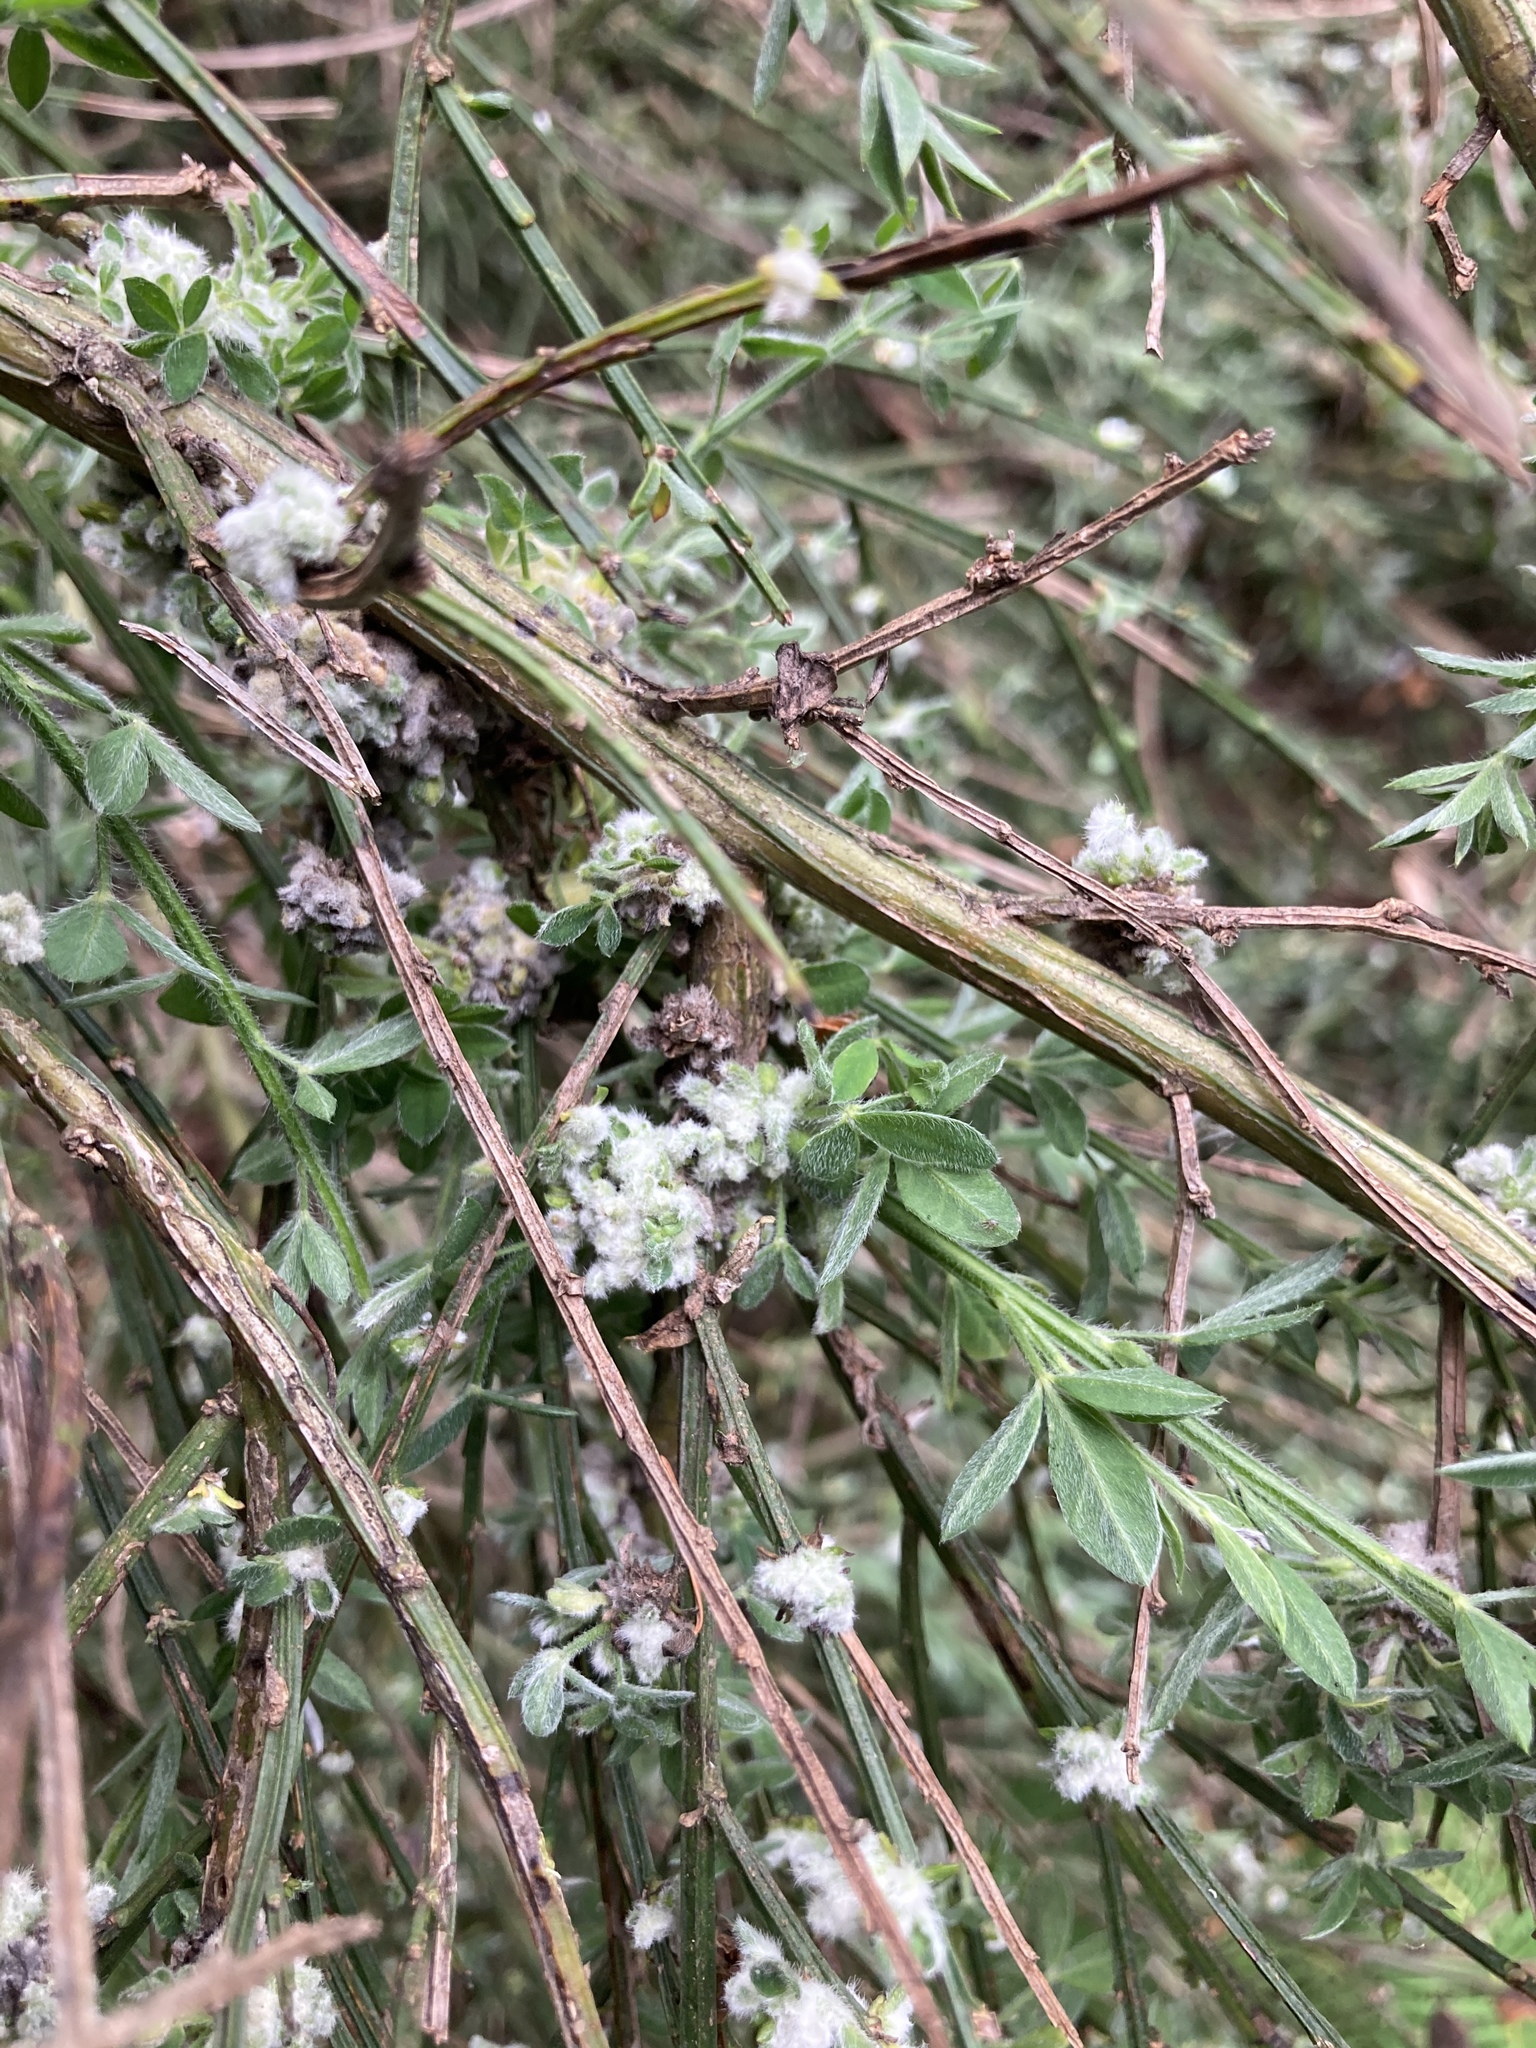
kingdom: Animalia
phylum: Arthropoda
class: Arachnida
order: Trombidiformes
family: Eriophyidae
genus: Aceria
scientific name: Aceria genistae
